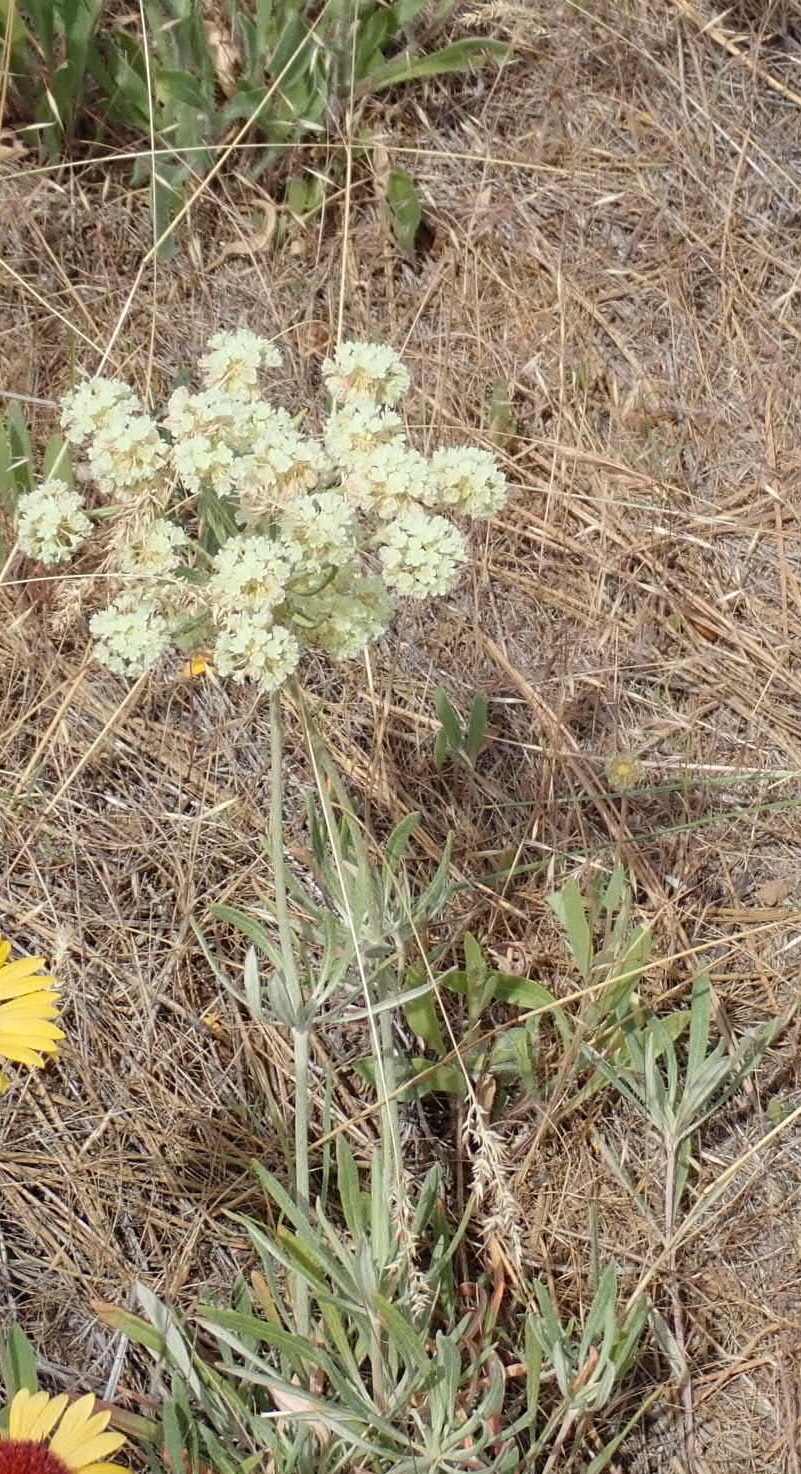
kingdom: Plantae
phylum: Tracheophyta
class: Magnoliopsida
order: Caryophyllales
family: Polygonaceae
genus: Eriogonum
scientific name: Eriogonum heracleoides
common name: Wyeth's buckwheat
